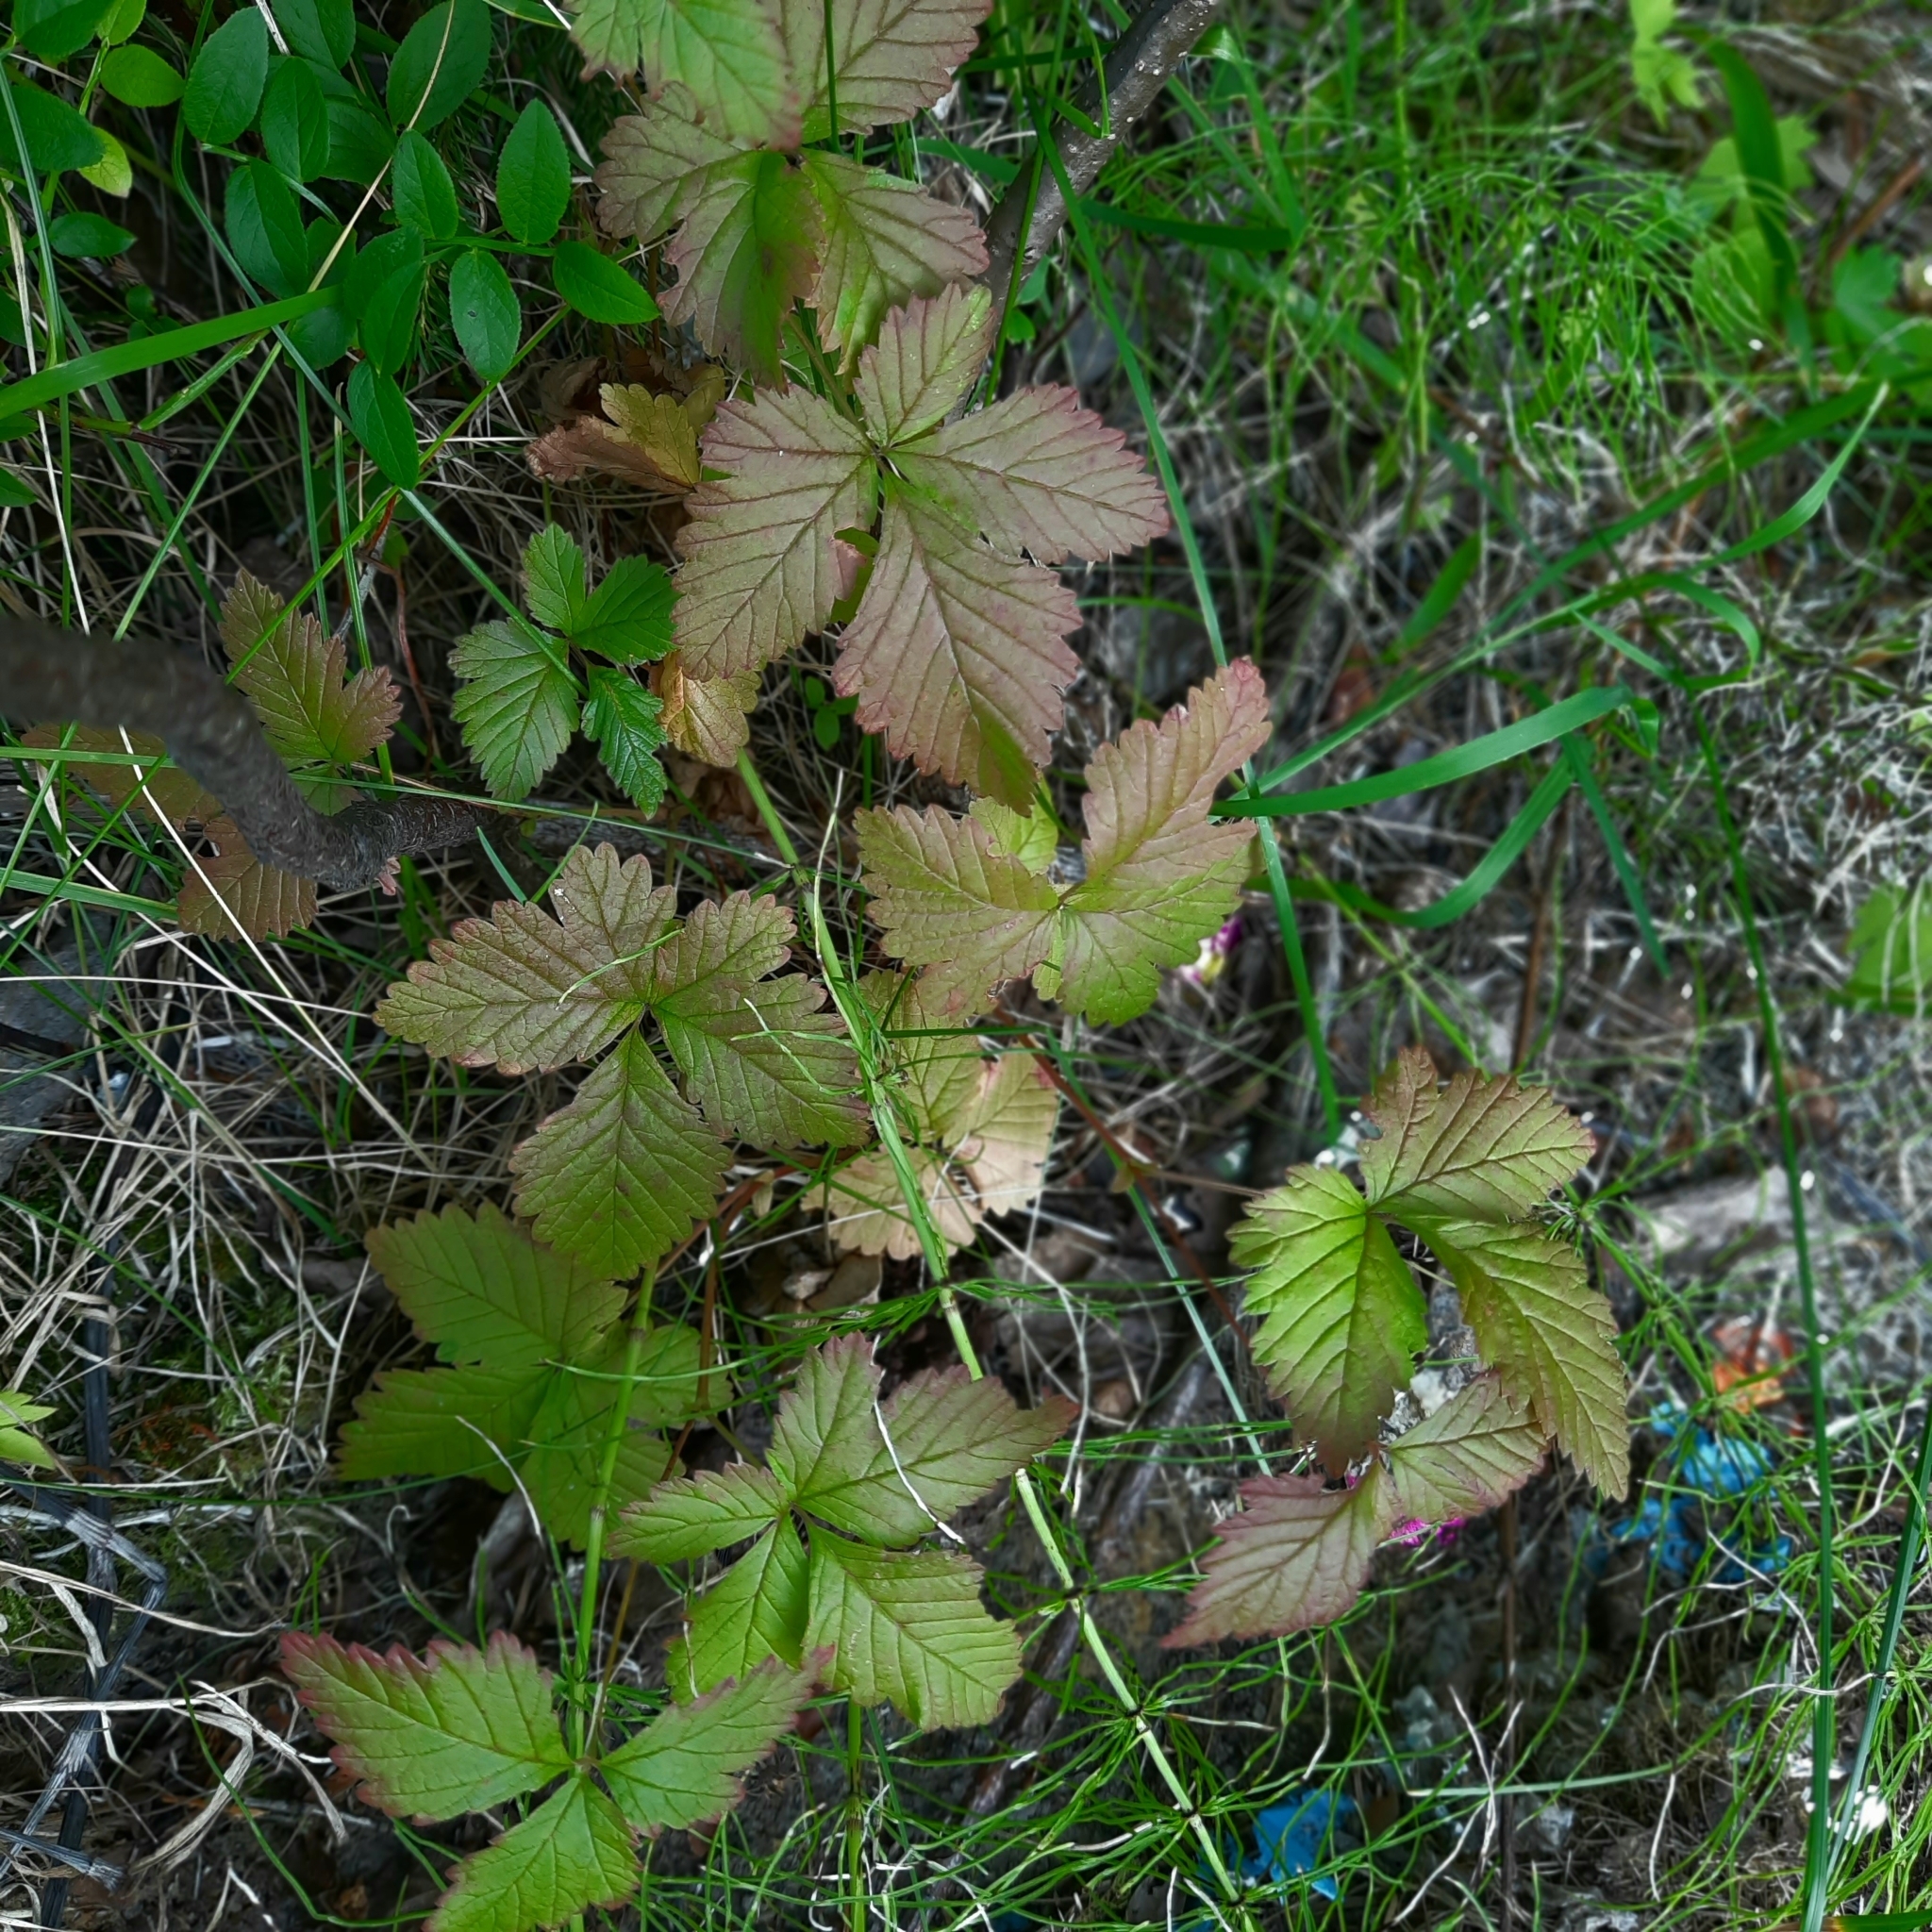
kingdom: Plantae
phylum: Tracheophyta
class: Magnoliopsida
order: Rosales
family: Rosaceae
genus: Rubus
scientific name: Rubus arcticus
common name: Arctic bramble
